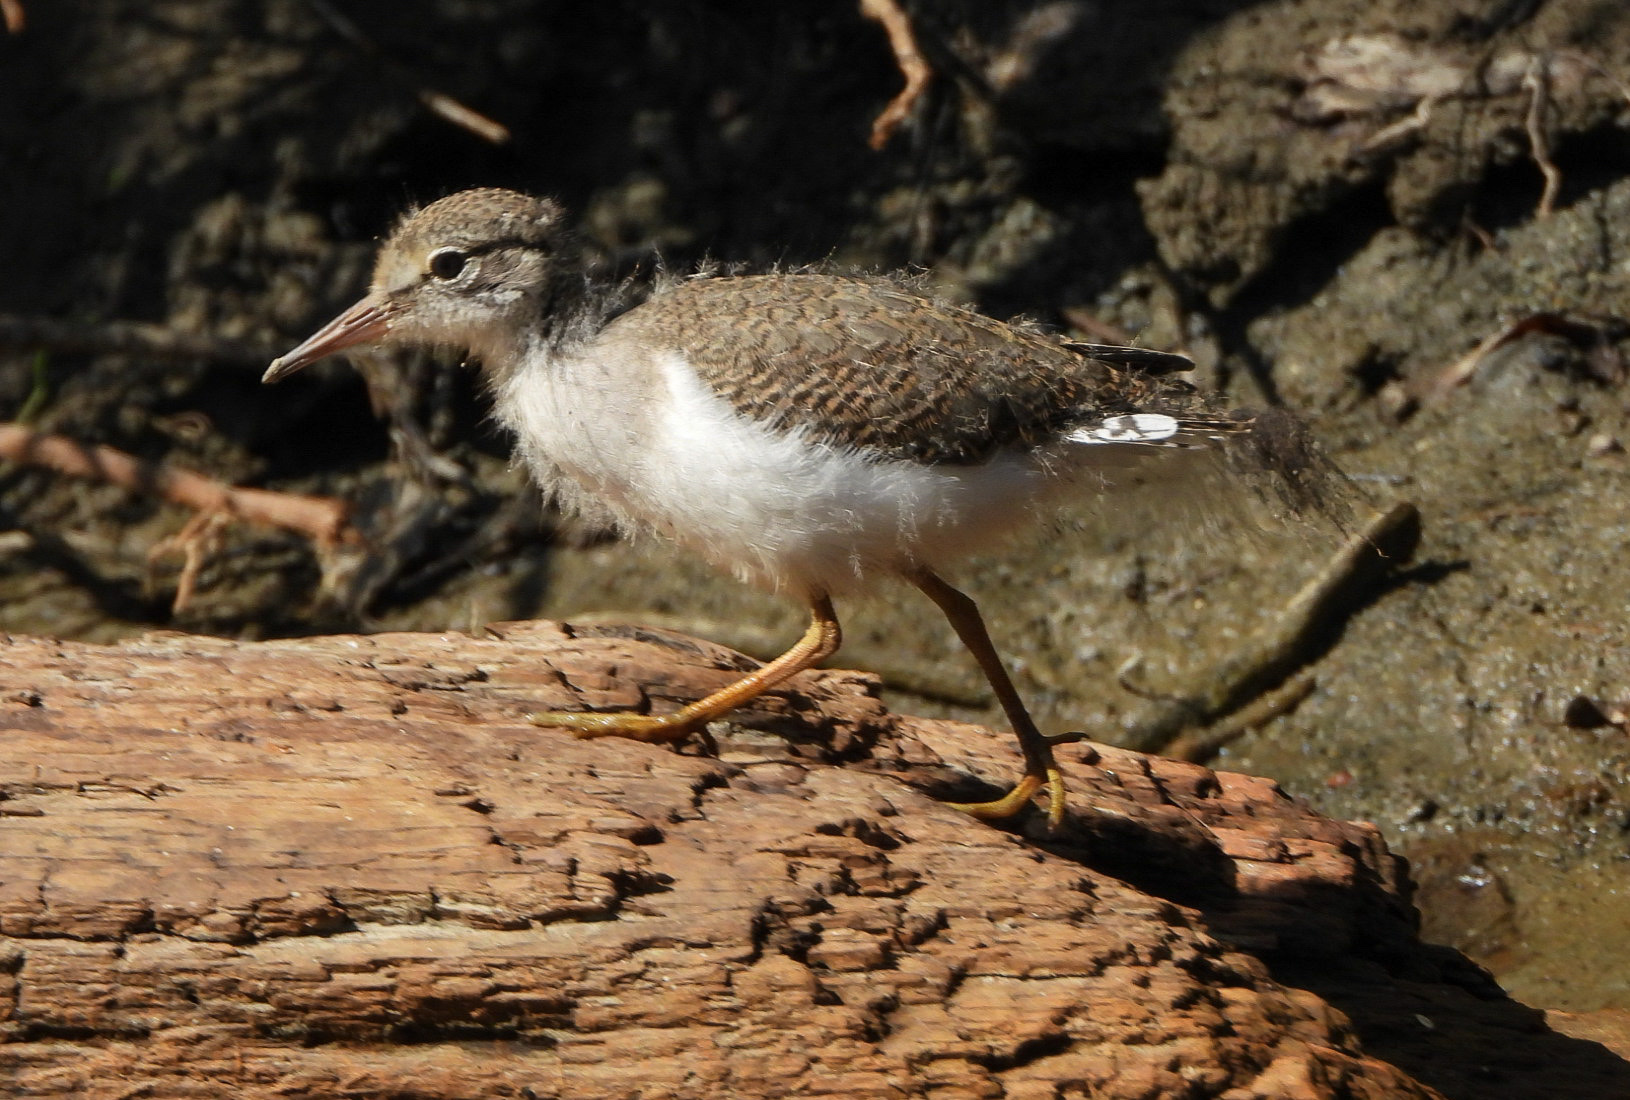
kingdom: Animalia
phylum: Chordata
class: Aves
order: Charadriiformes
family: Scolopacidae
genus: Actitis
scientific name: Actitis macularius
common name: Spotted sandpiper
